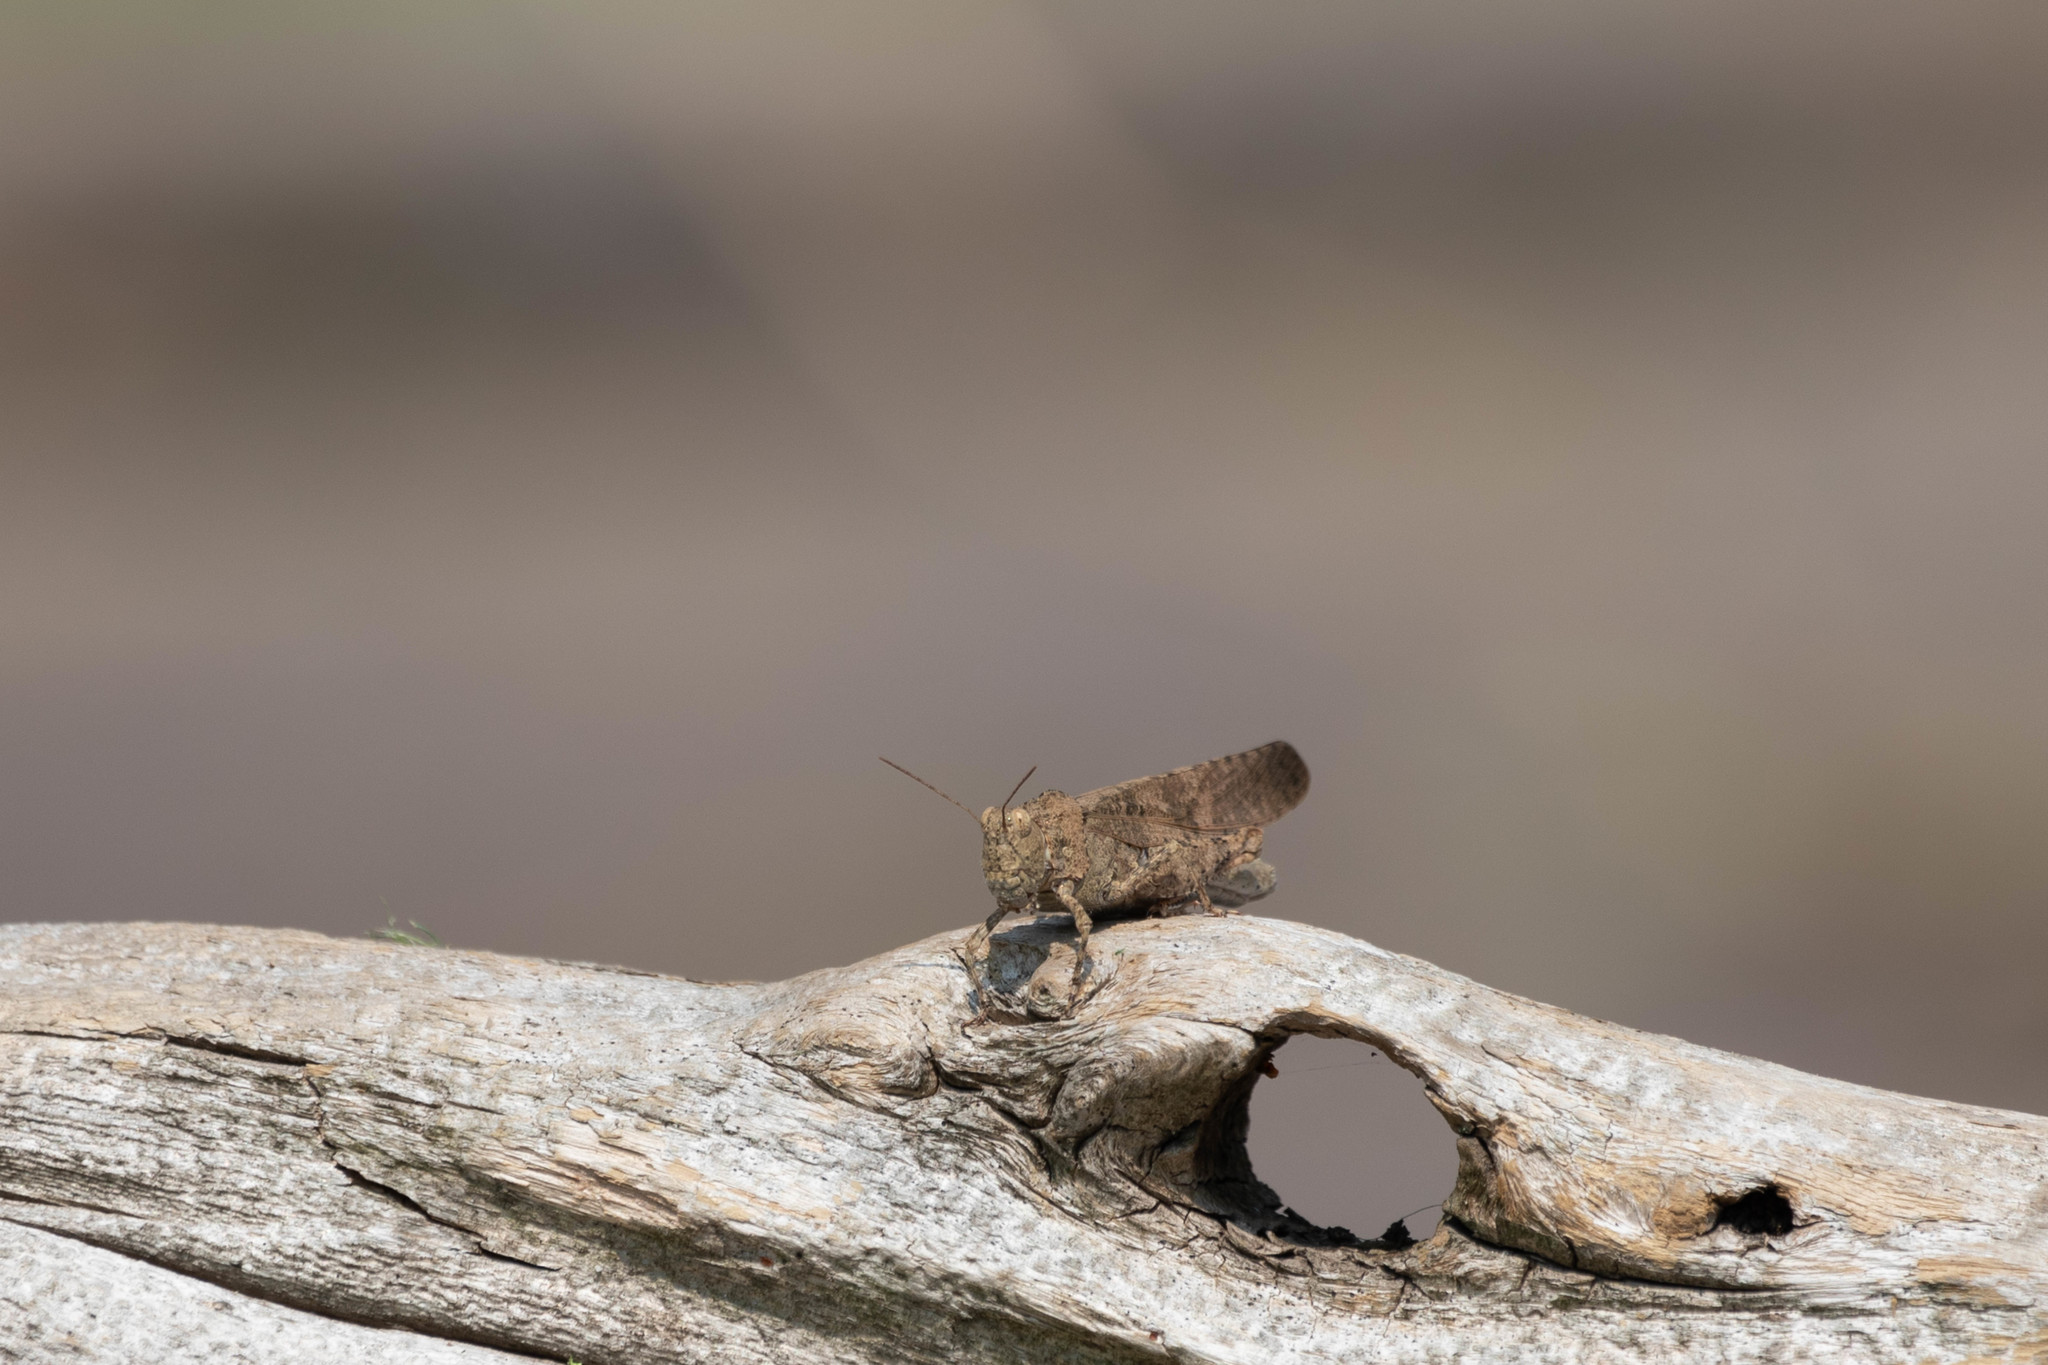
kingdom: Animalia
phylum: Arthropoda
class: Insecta
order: Orthoptera
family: Acrididae
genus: Dissosteira
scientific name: Dissosteira carolina
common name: Carolina grasshopper
